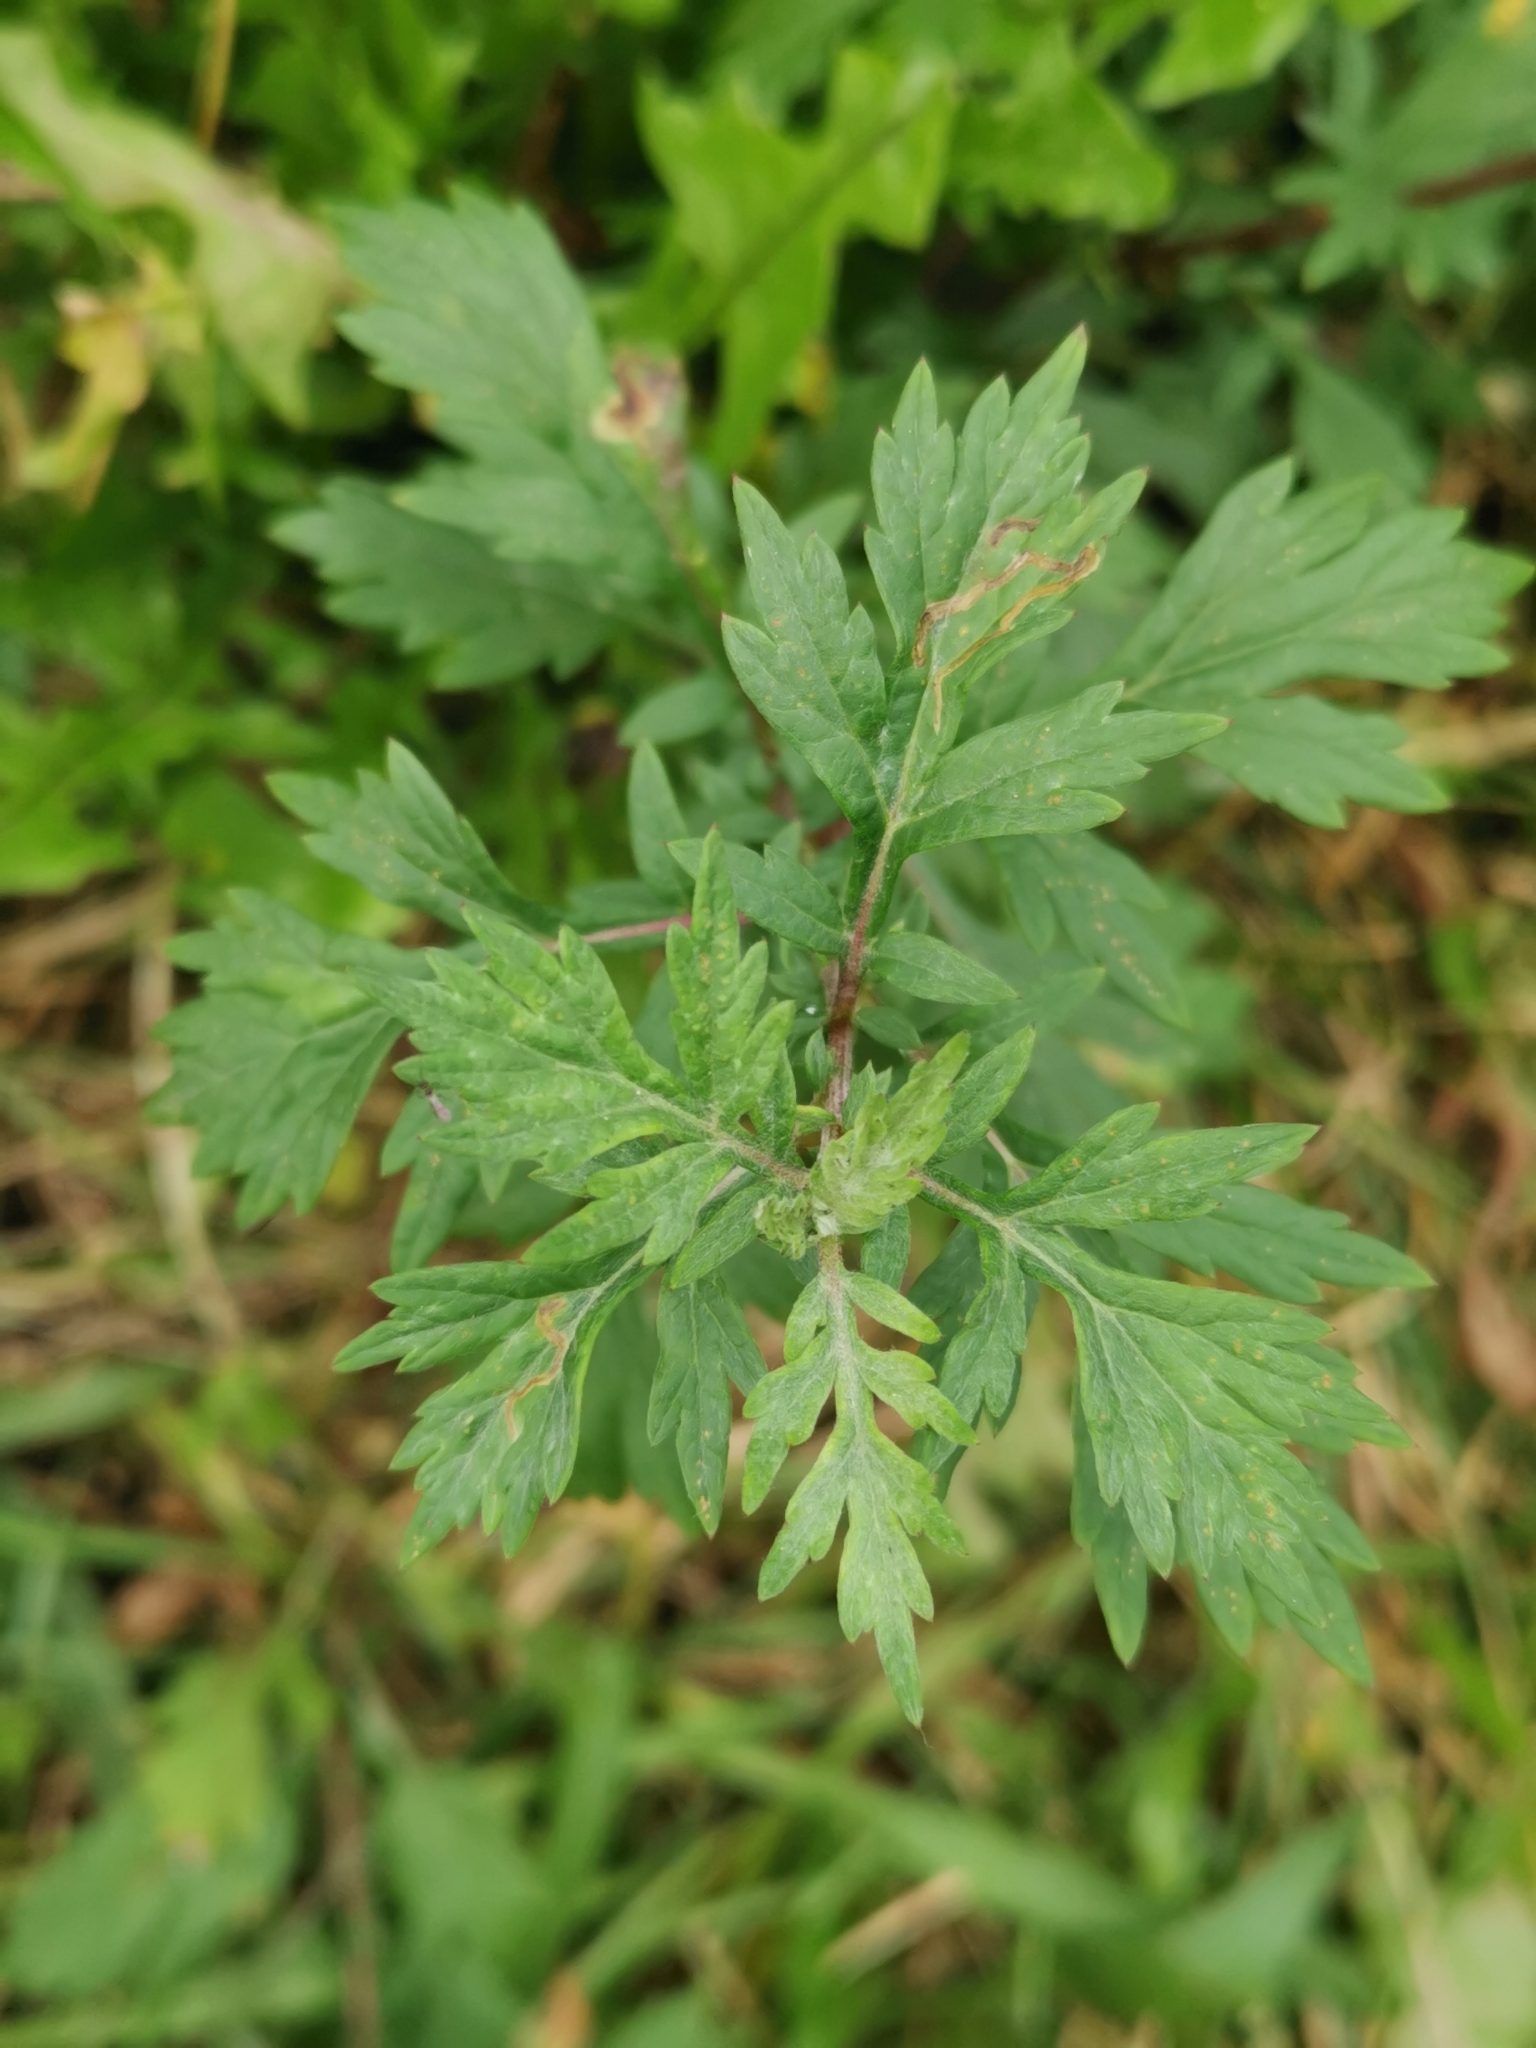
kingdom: Plantae
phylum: Tracheophyta
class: Magnoliopsida
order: Asterales
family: Asteraceae
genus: Artemisia
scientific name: Artemisia vulgaris
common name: Mugwort
